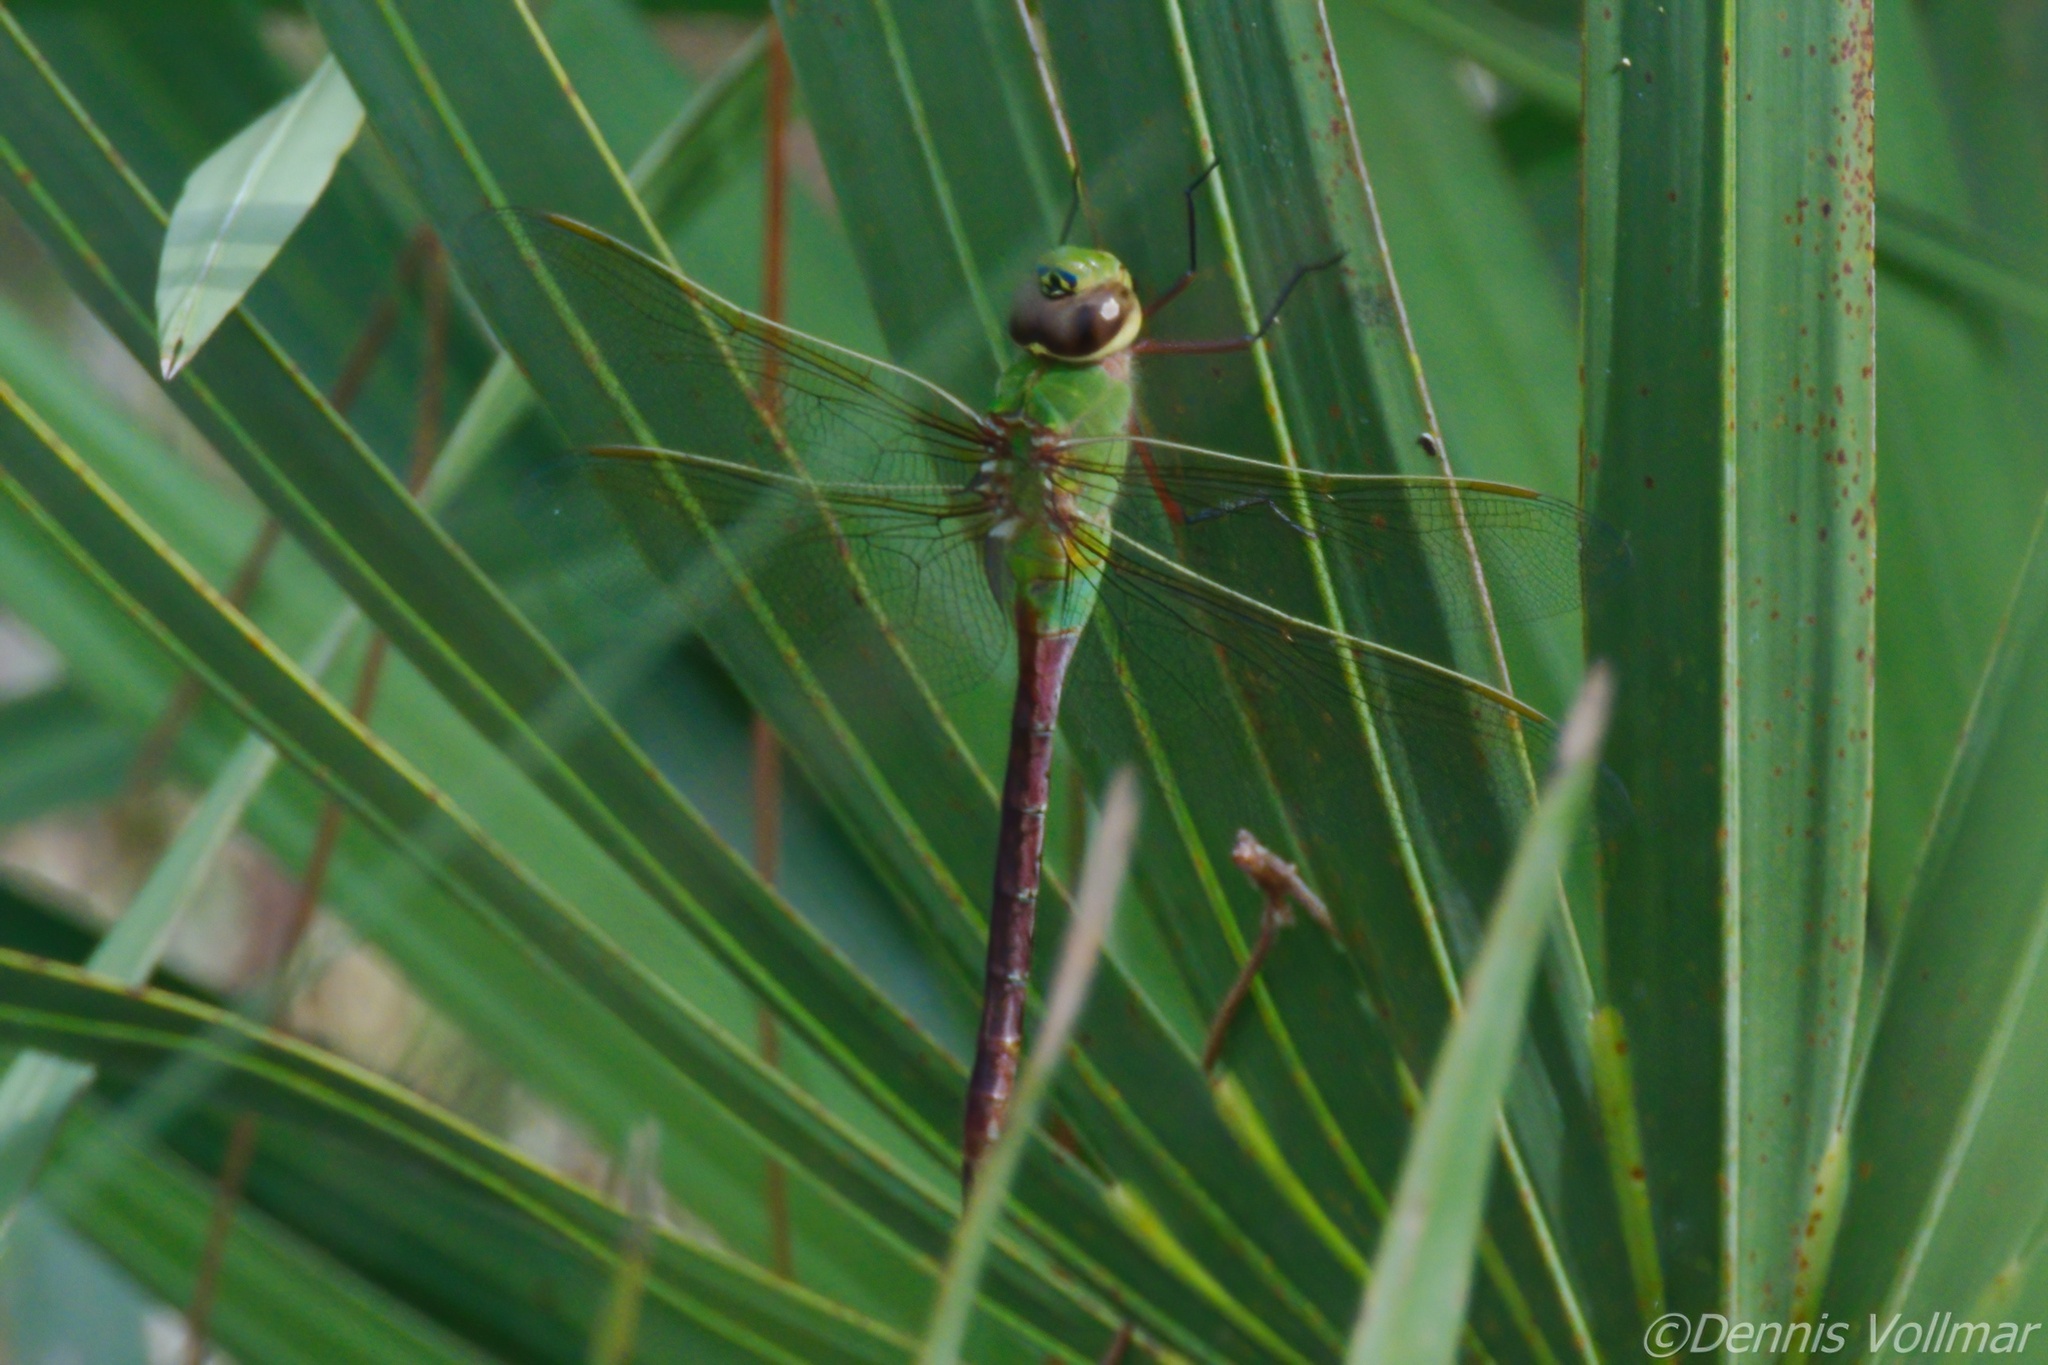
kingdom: Animalia
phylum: Arthropoda
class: Insecta
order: Odonata
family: Aeshnidae
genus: Anax
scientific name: Anax junius
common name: Common green darner
